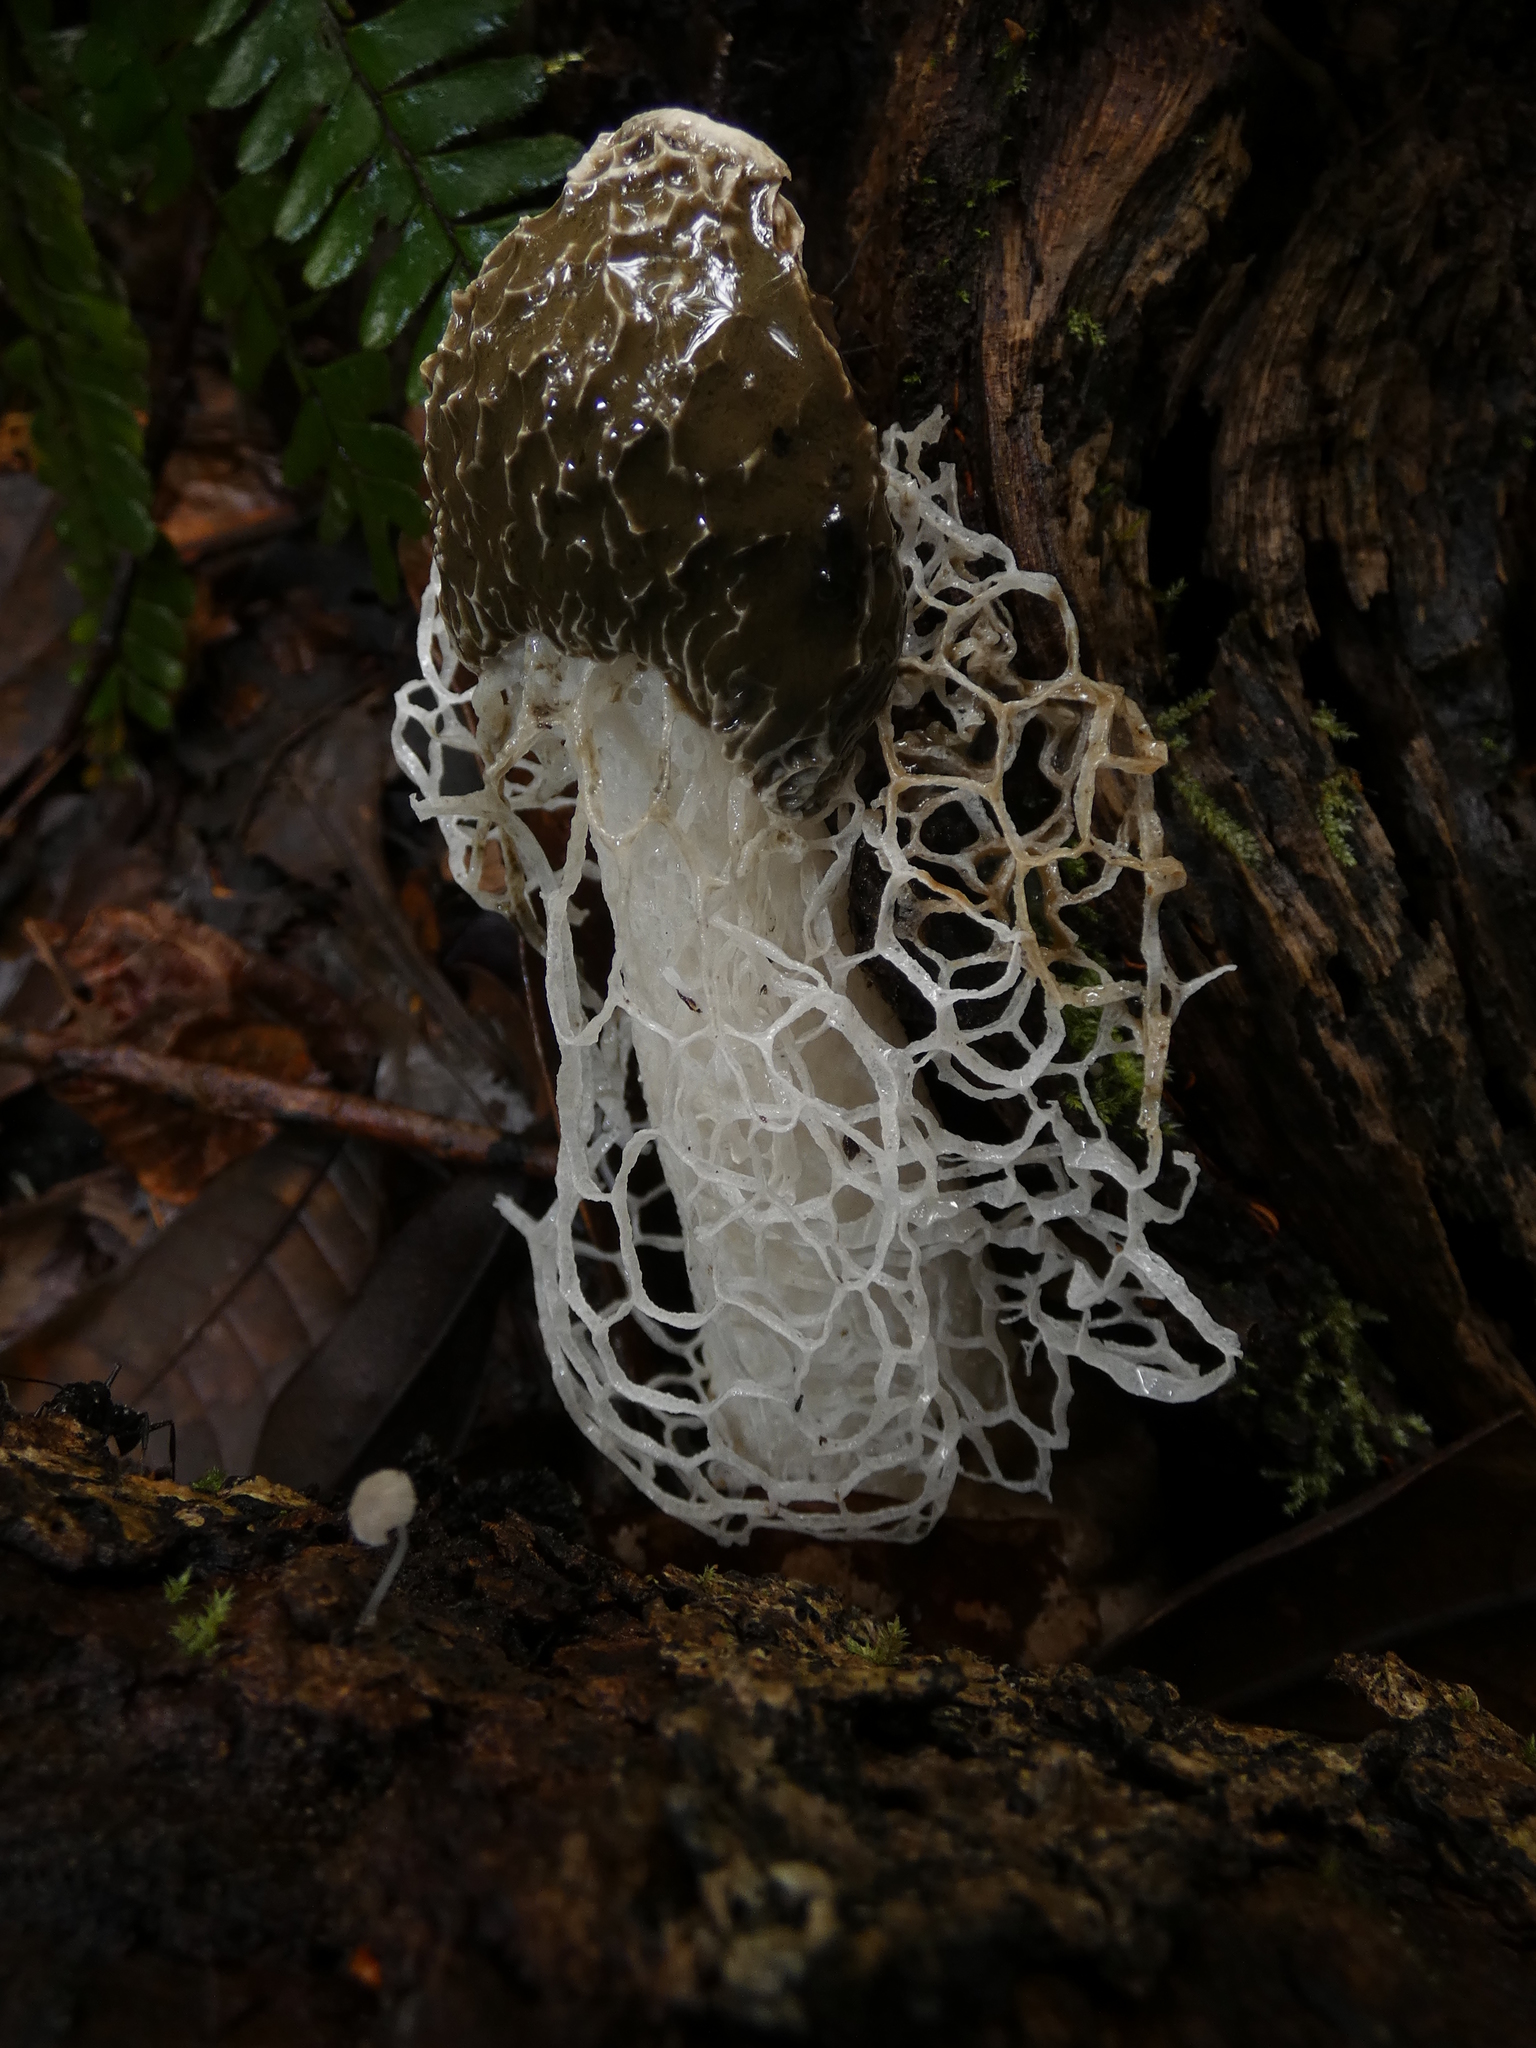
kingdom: Fungi
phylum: Basidiomycota
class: Agaricomycetes
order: Phallales
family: Phallaceae
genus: Phallus
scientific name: Phallus indusiatus
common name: Bridal veil stinkhorn
